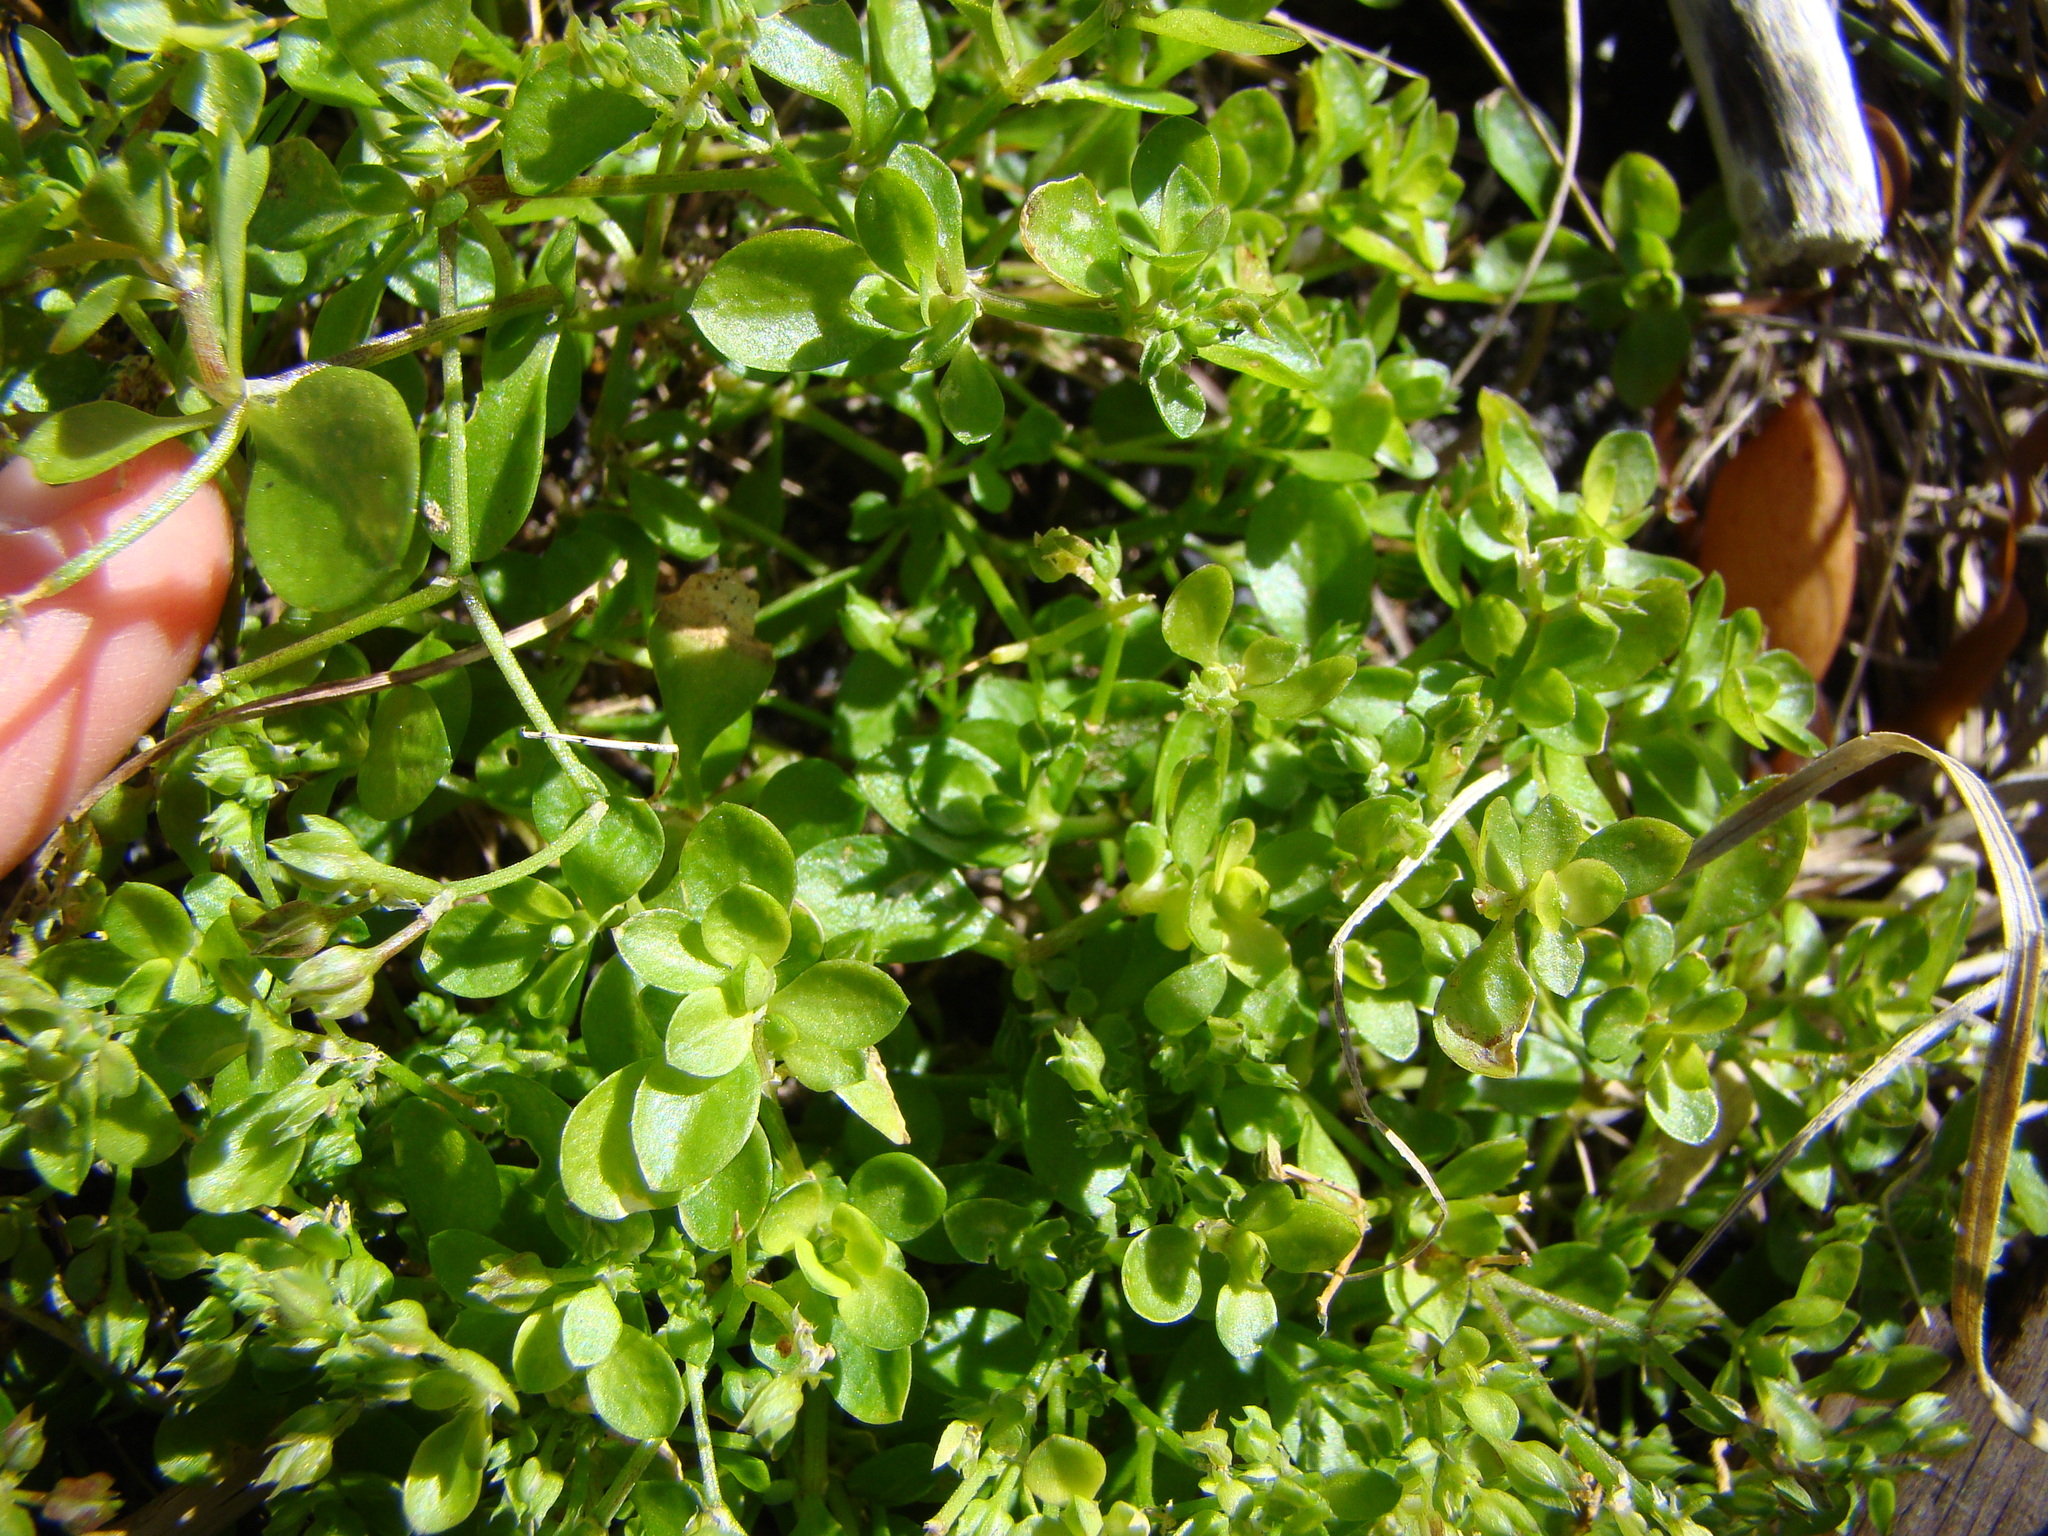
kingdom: Plantae
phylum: Tracheophyta
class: Magnoliopsida
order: Caryophyllales
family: Caryophyllaceae
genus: Polycarpon
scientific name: Polycarpon tetraphyllum
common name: Four-leaved all-seed
